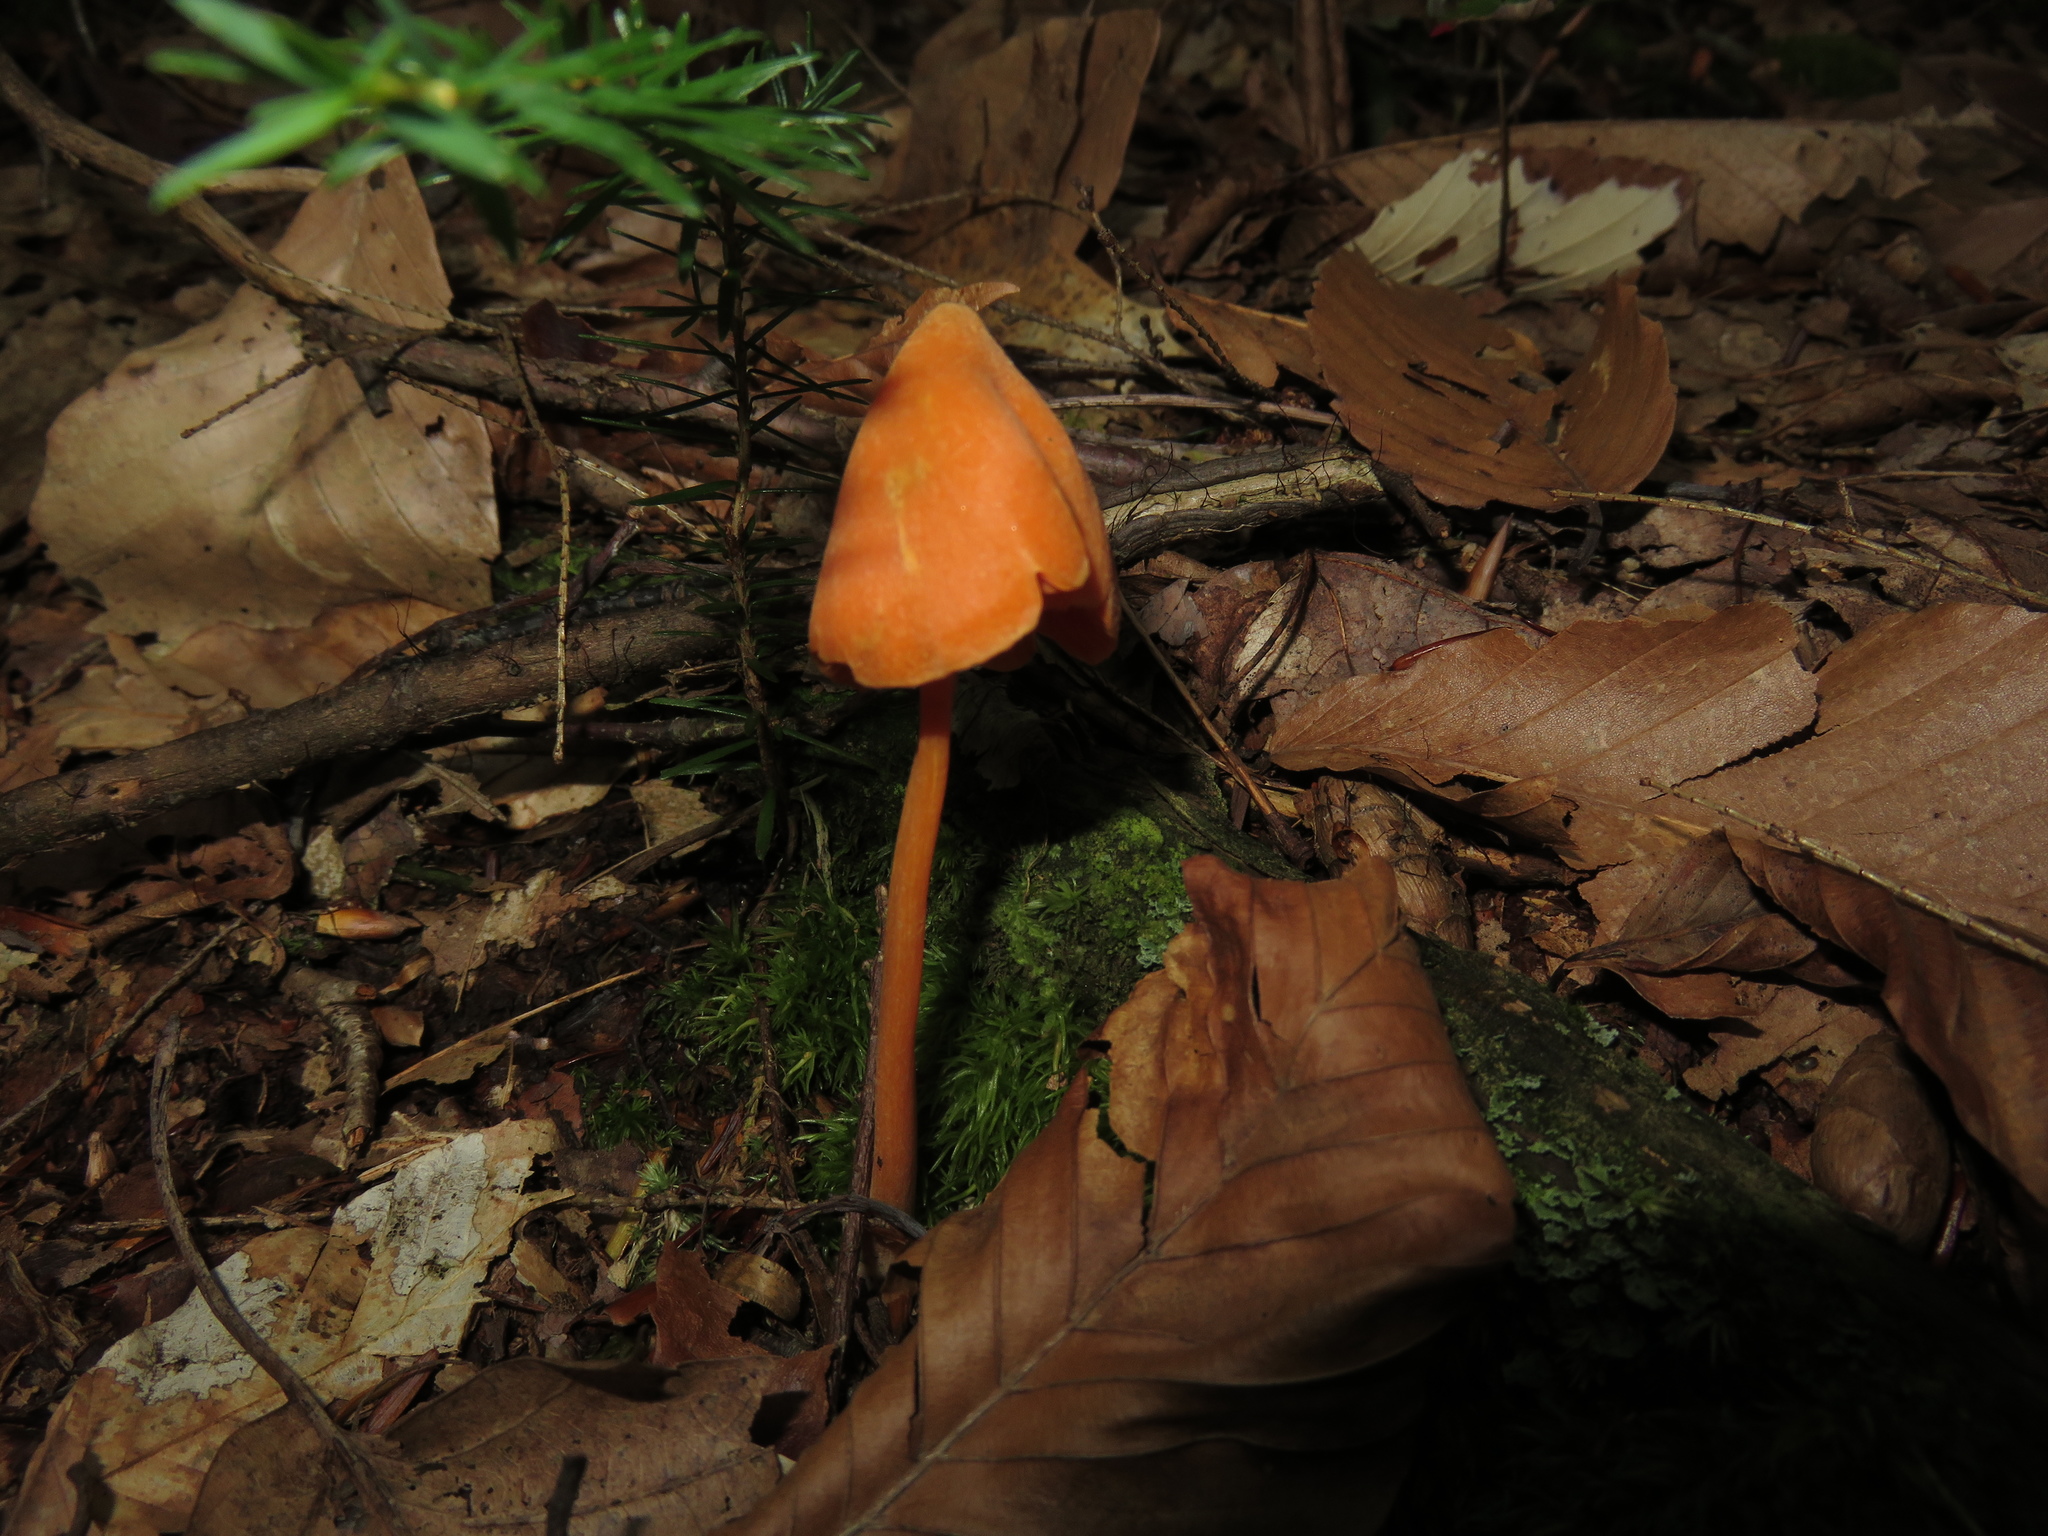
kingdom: Fungi
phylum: Basidiomycota
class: Agaricomycetes
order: Agaricales
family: Entolomataceae
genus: Entoloma
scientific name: Entoloma quadratum
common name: Salmon pinkgill
